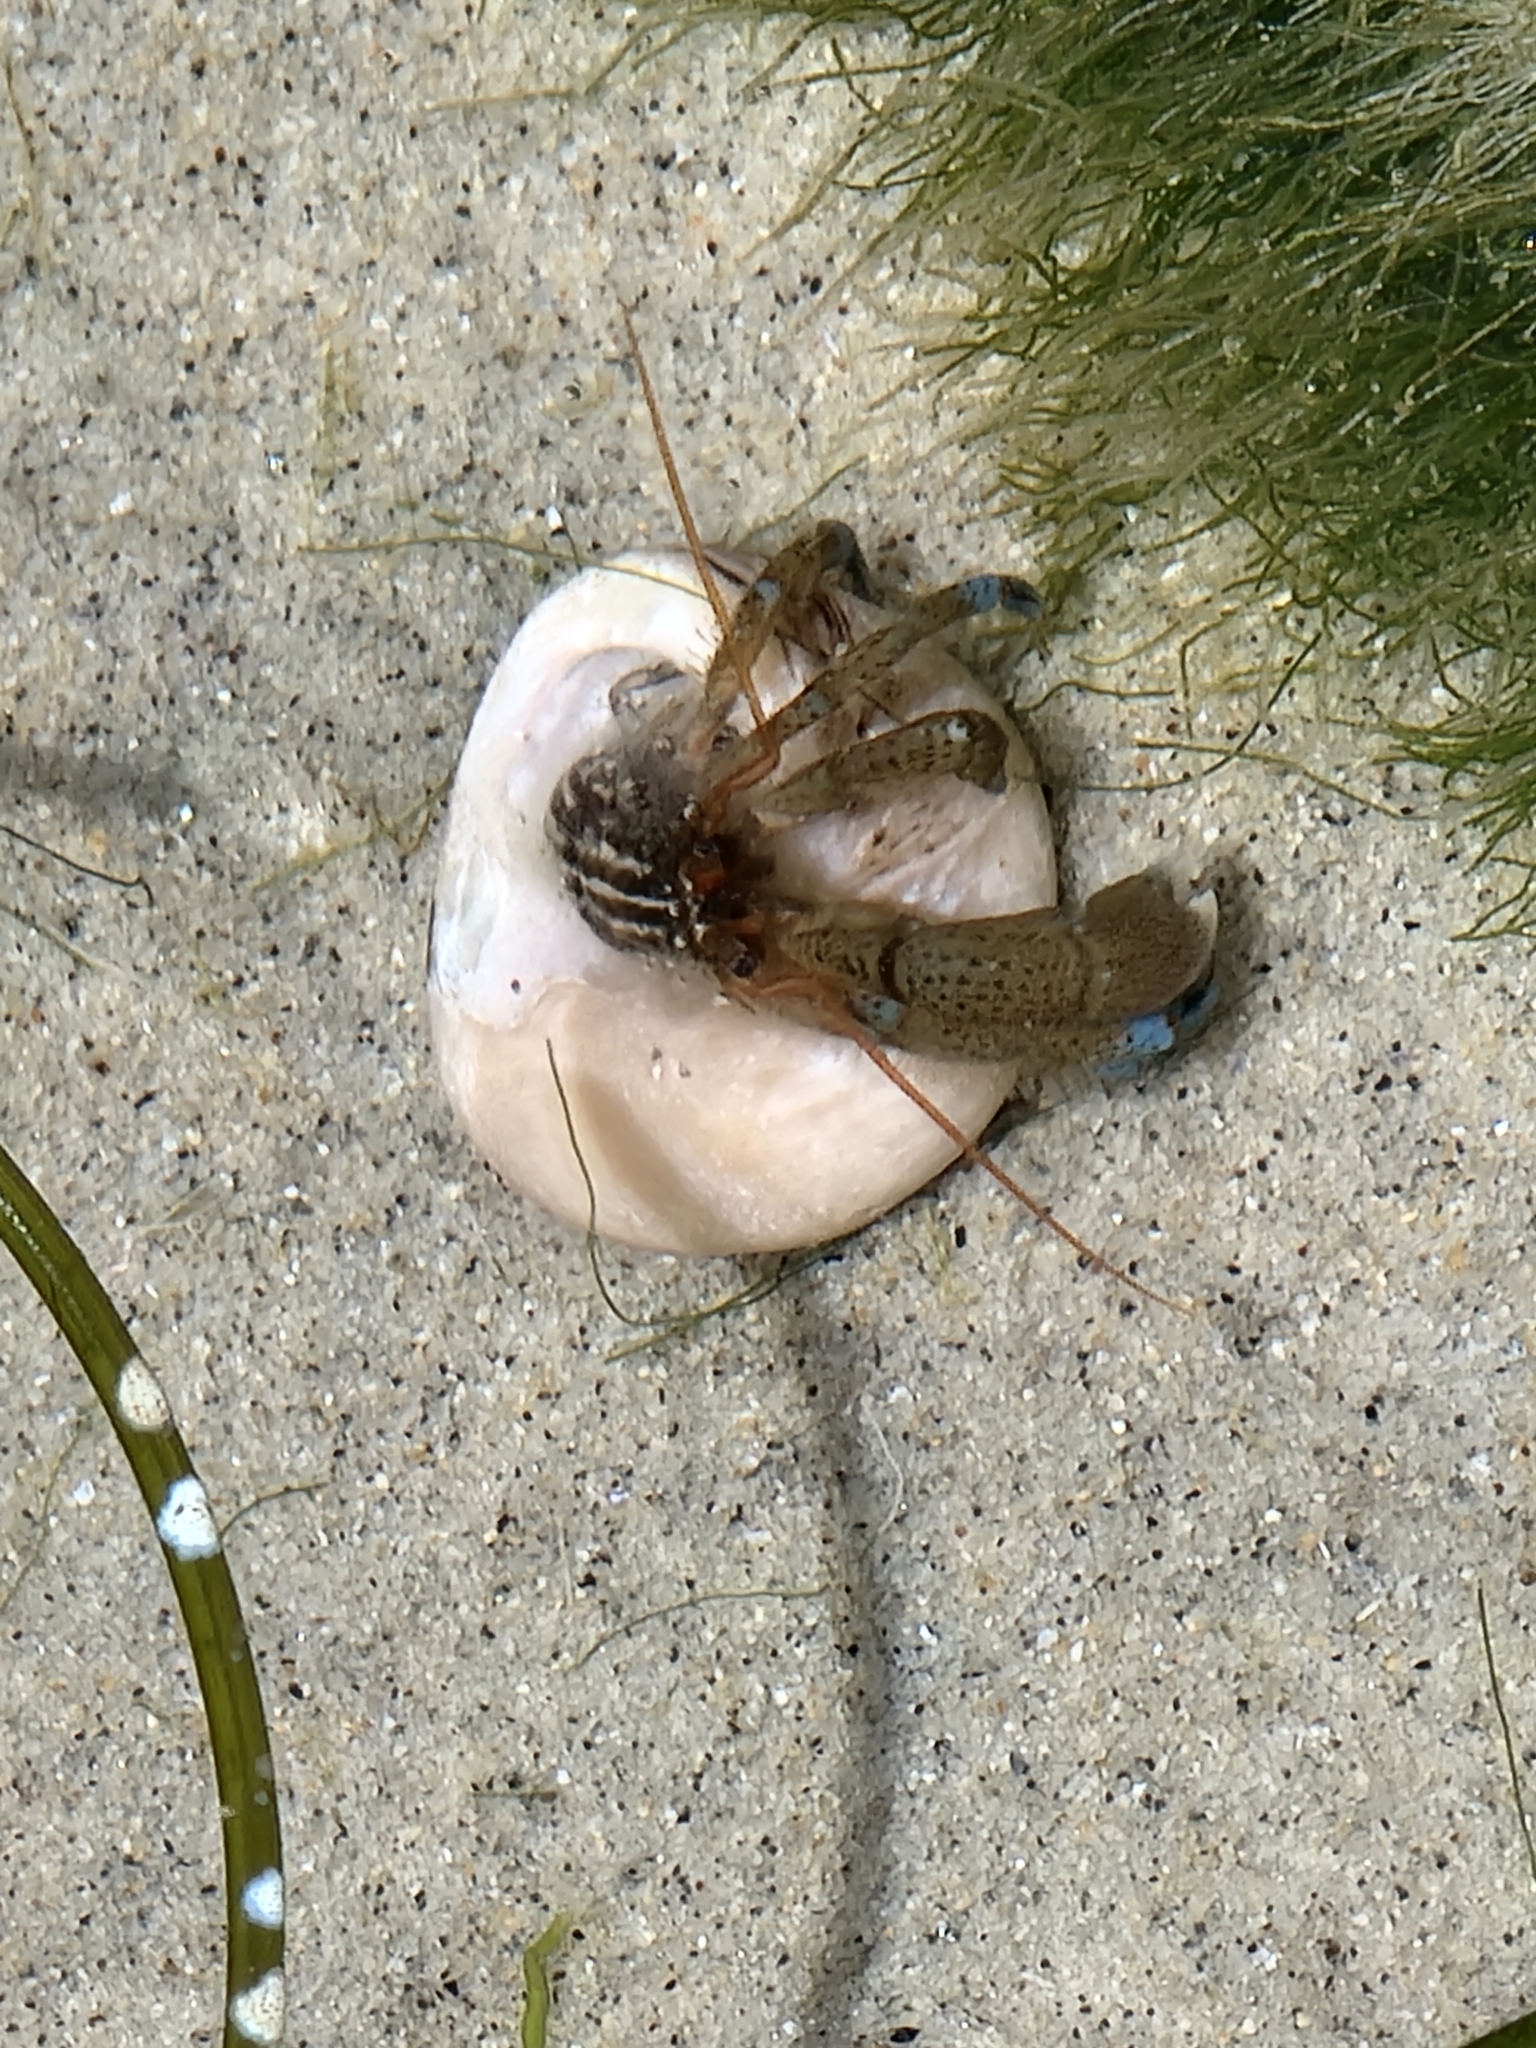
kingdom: Animalia
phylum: Arthropoda
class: Malacostraca
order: Decapoda
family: Paguridae
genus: Pagurus
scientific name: Pagurus samuelis
